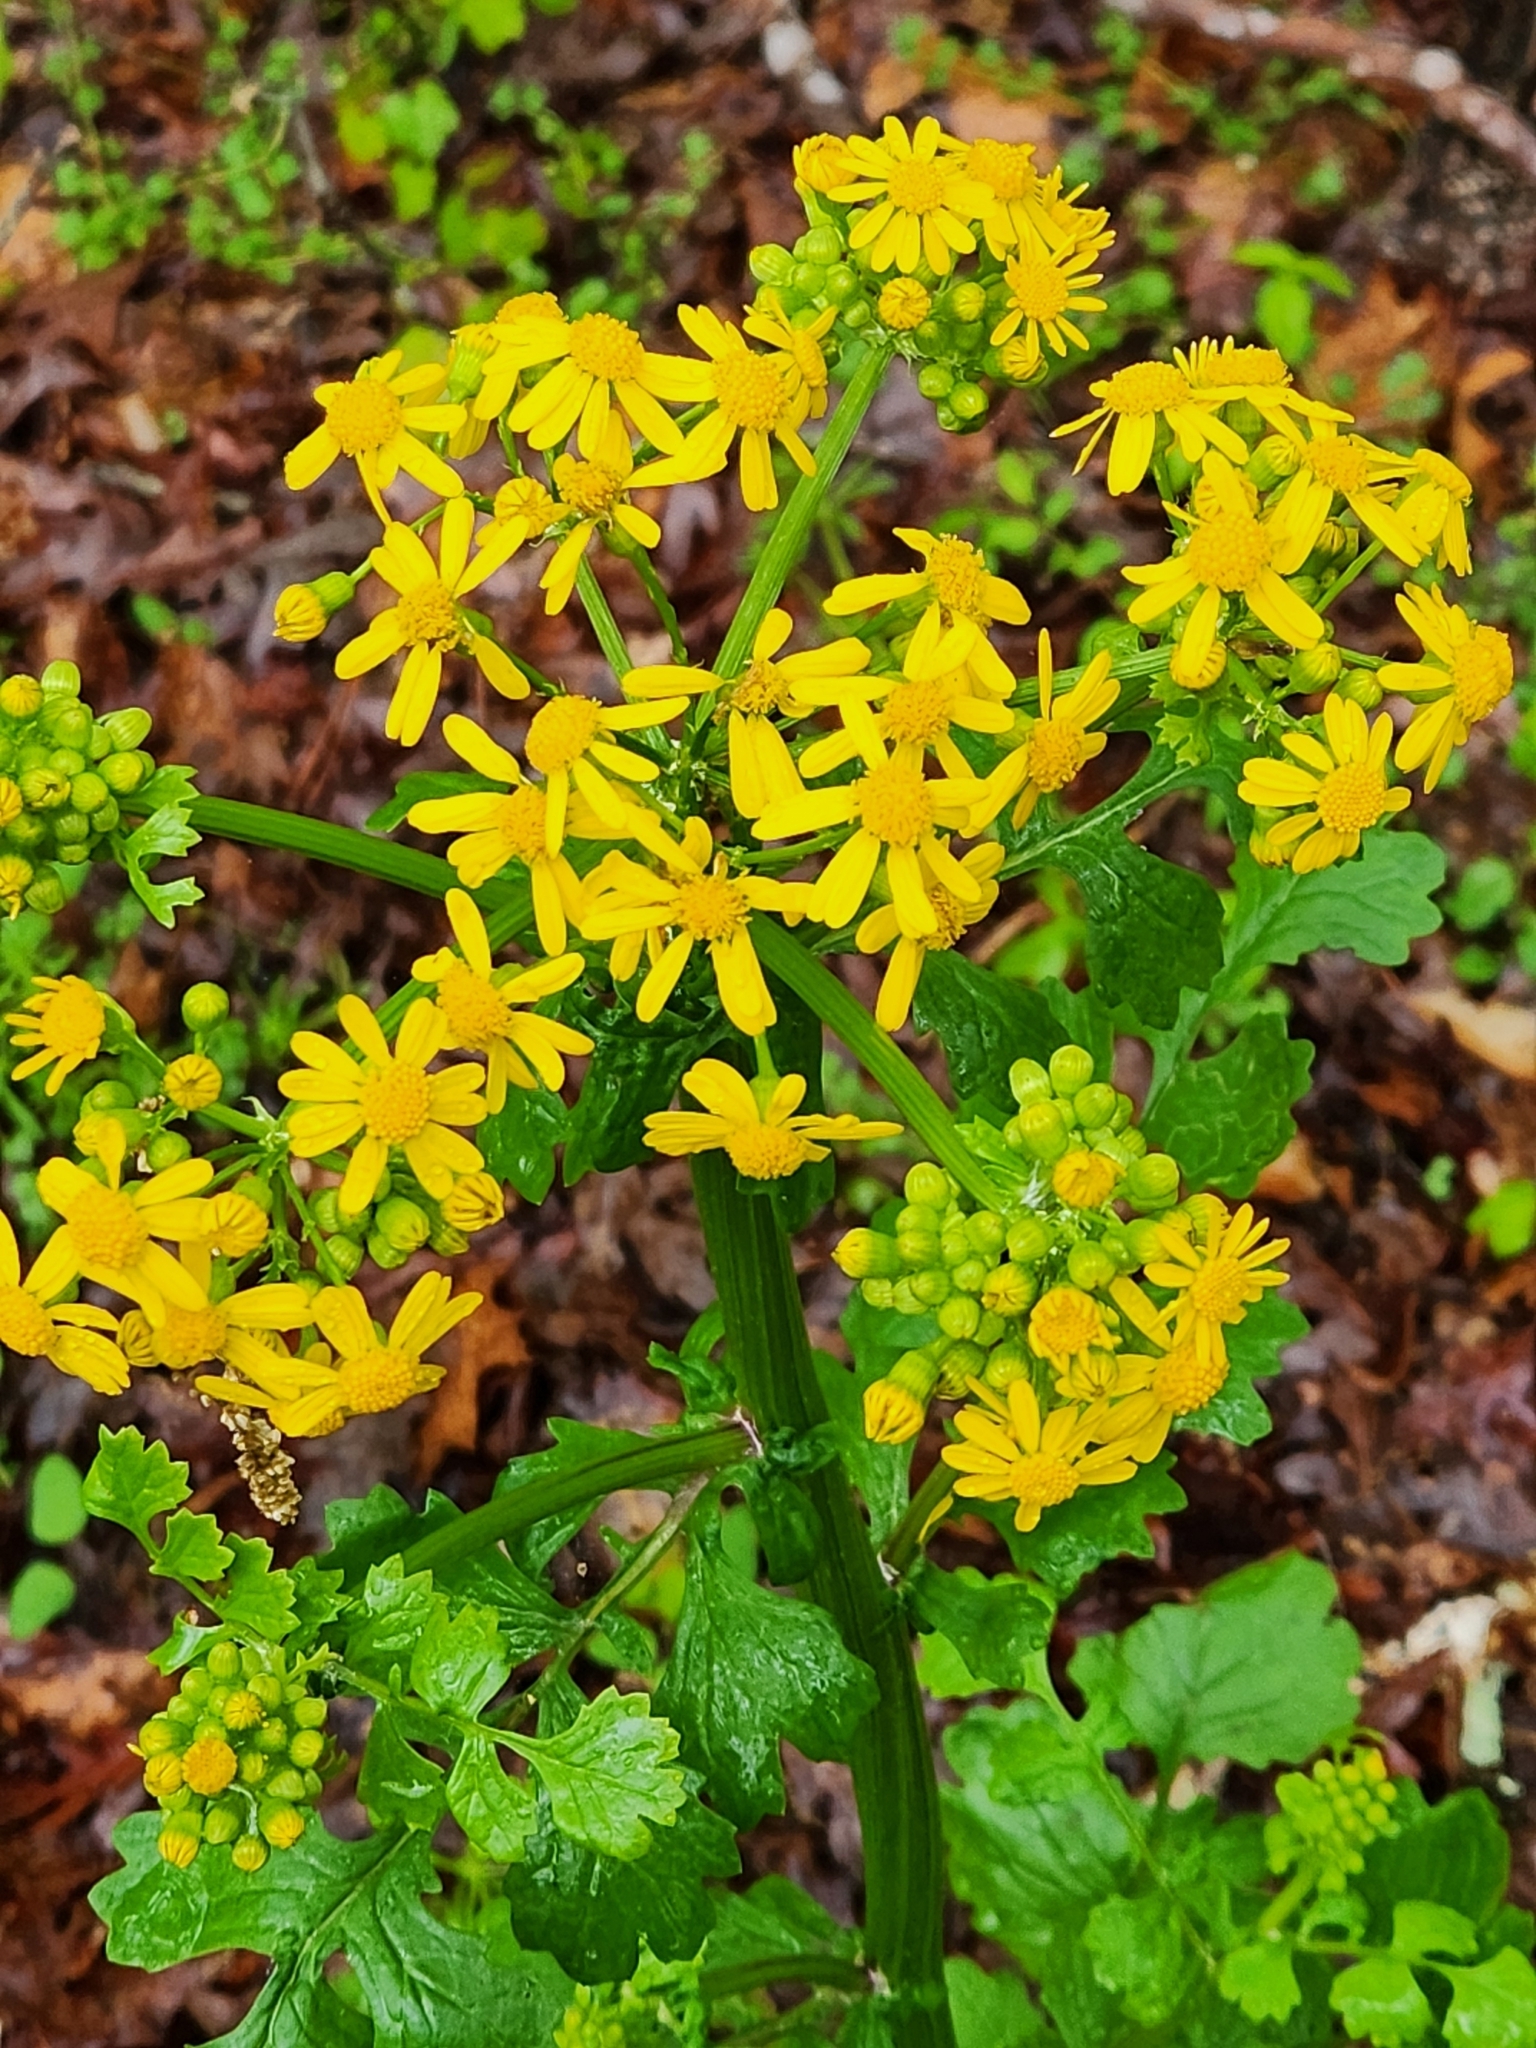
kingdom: Plantae
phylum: Tracheophyta
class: Magnoliopsida
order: Asterales
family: Asteraceae
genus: Packera
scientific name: Packera glabella
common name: Butterweed
